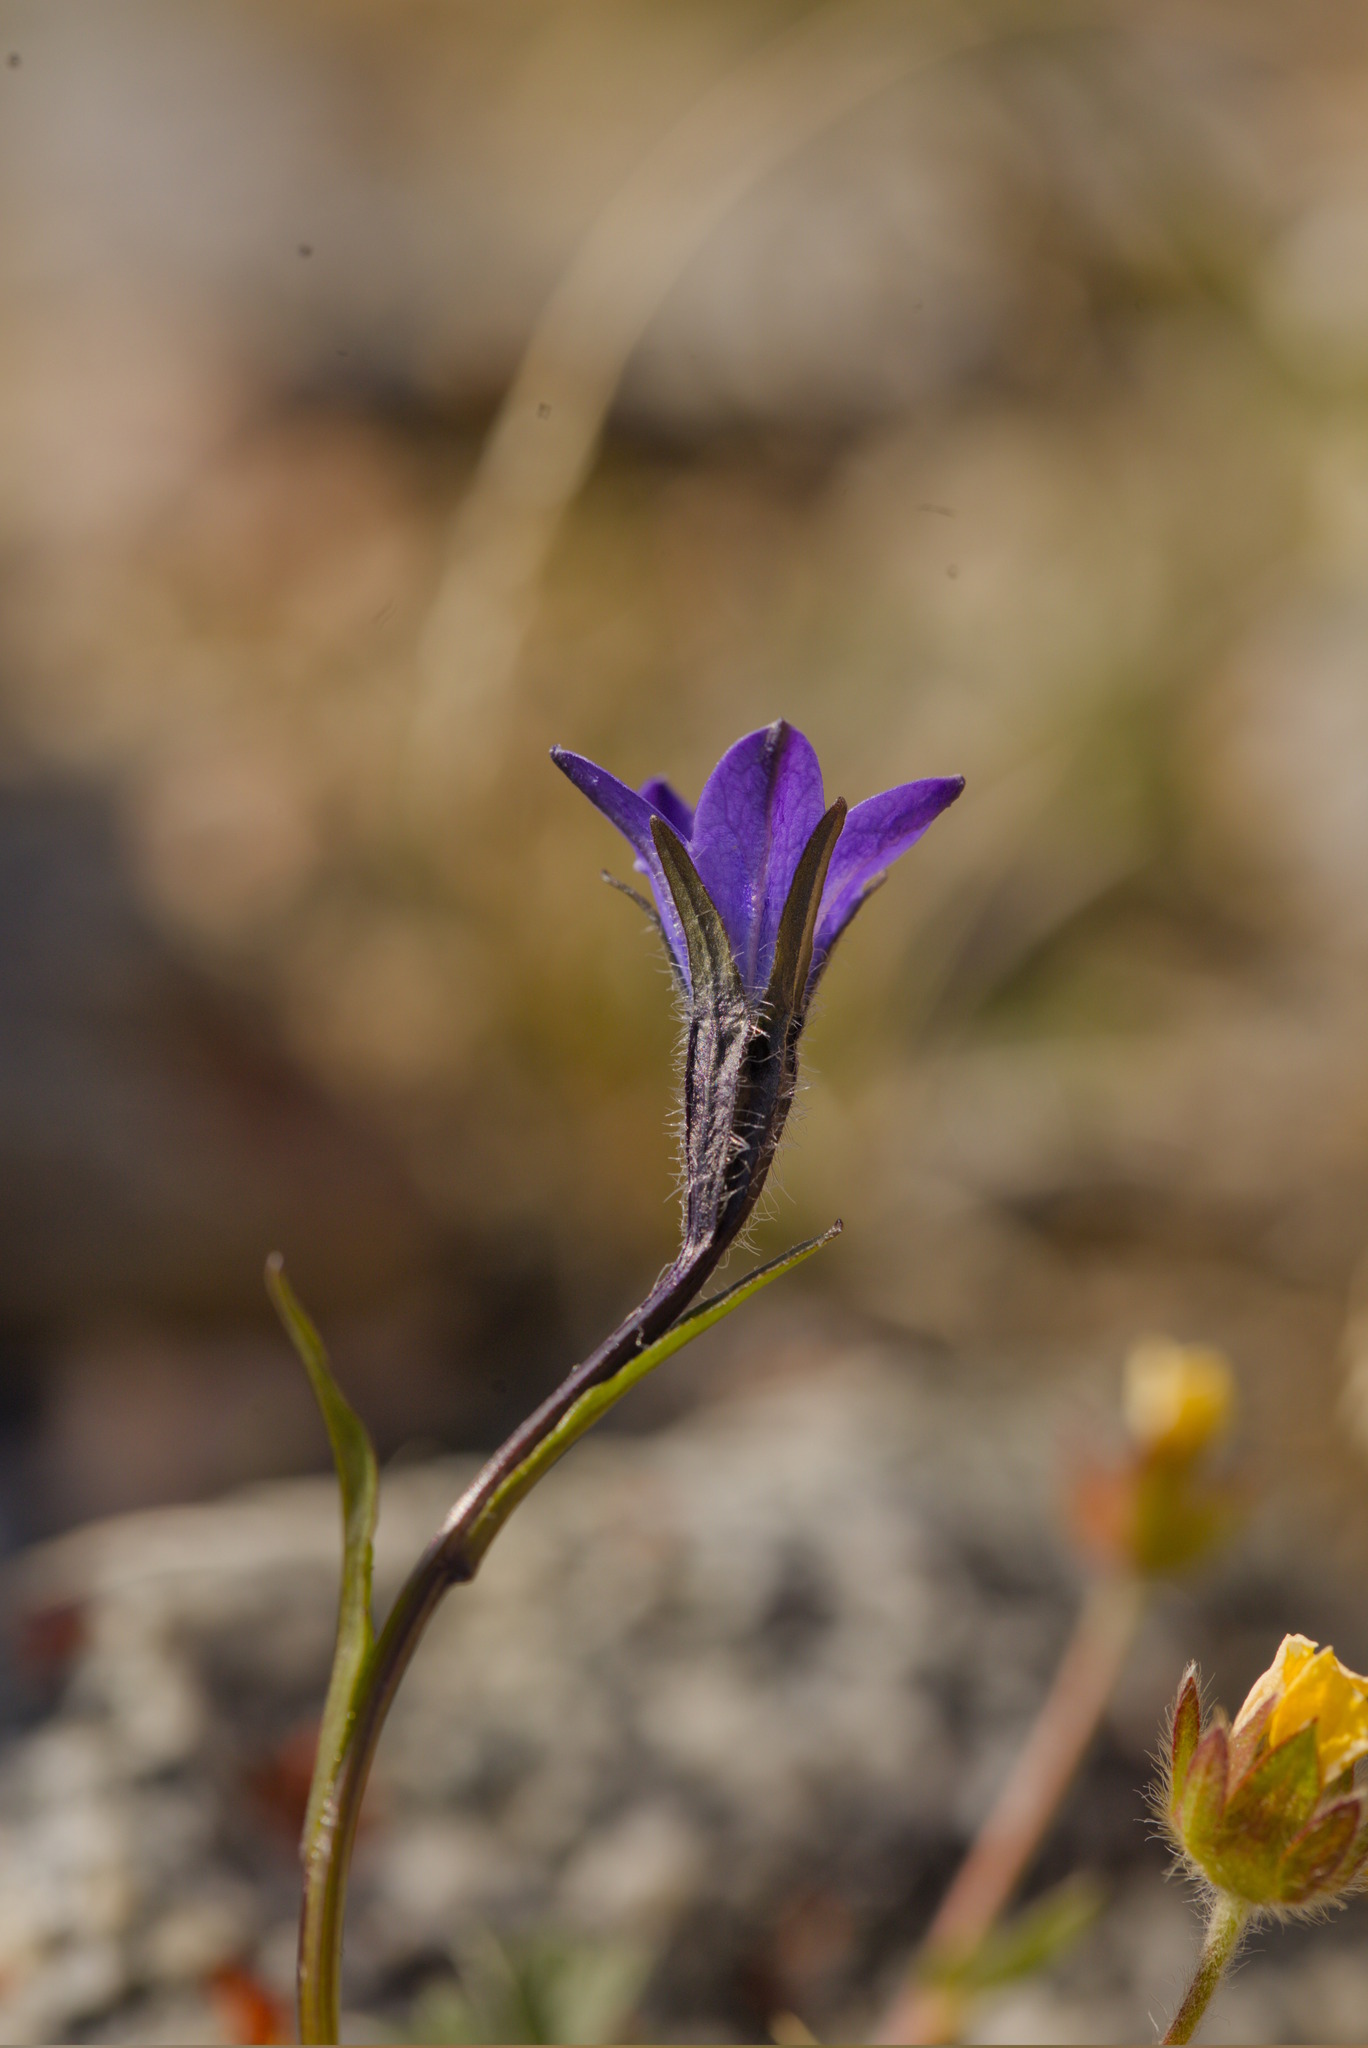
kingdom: Plantae
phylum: Tracheophyta
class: Magnoliopsida
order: Asterales
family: Campanulaceae
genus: Campanula
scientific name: Campanula uniflora
